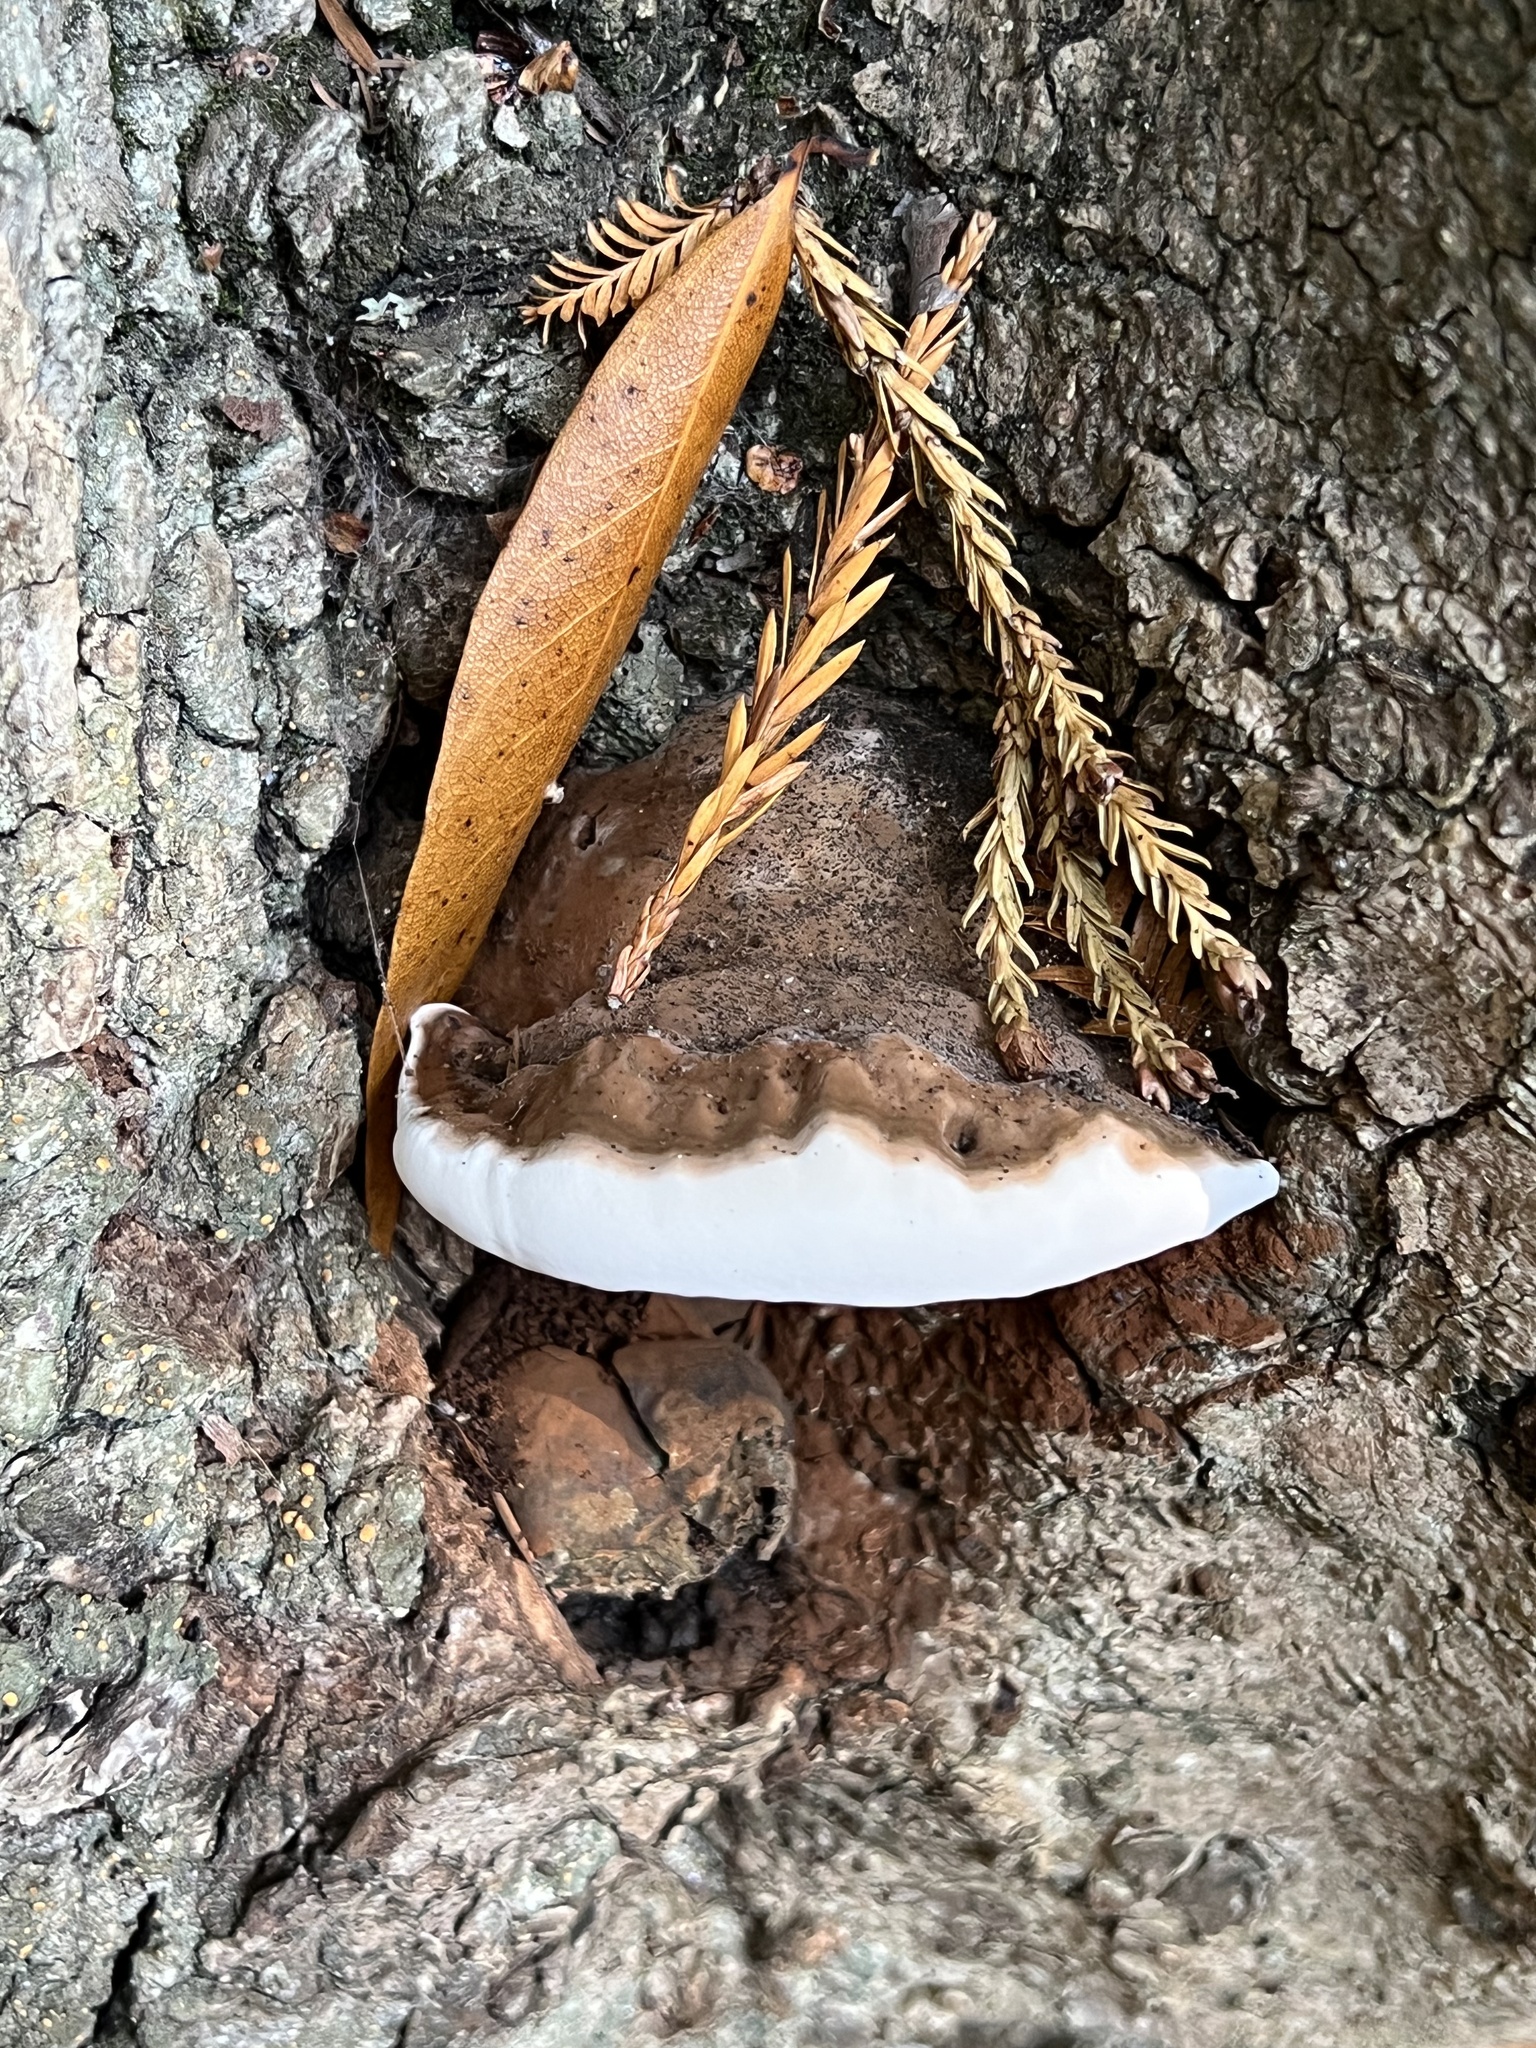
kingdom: Fungi
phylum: Basidiomycota
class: Agaricomycetes
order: Polyporales
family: Polyporaceae
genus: Ganoderma
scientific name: Ganoderma brownii
